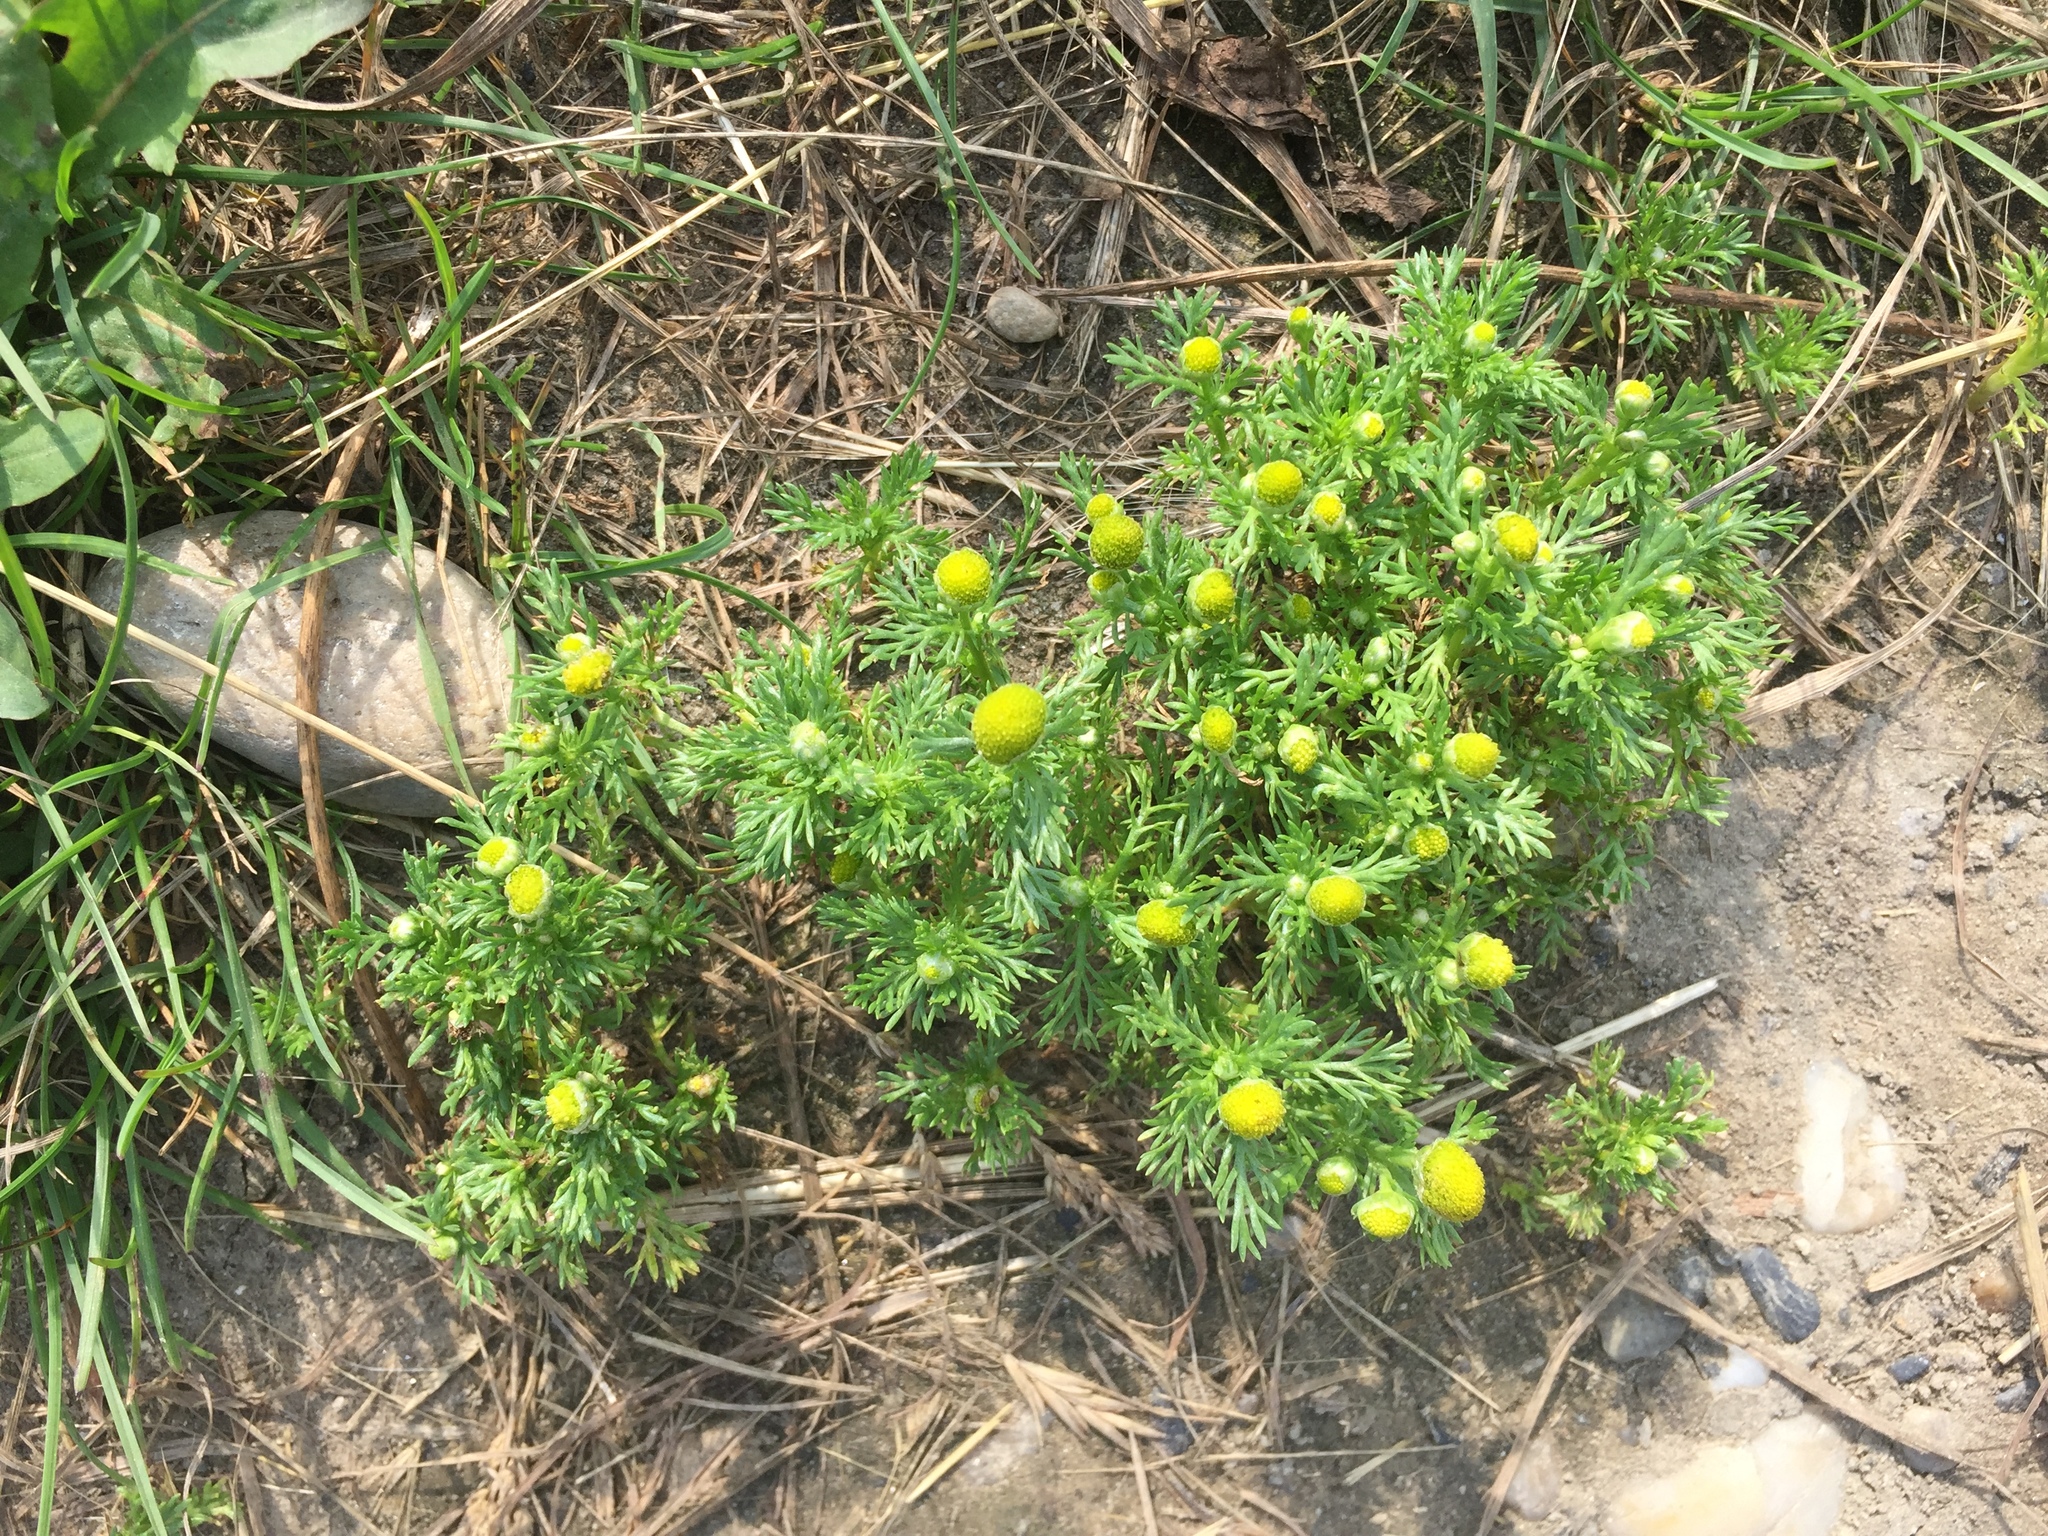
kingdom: Plantae
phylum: Tracheophyta
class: Magnoliopsida
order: Asterales
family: Asteraceae
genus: Matricaria
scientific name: Matricaria discoidea
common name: Disc mayweed
